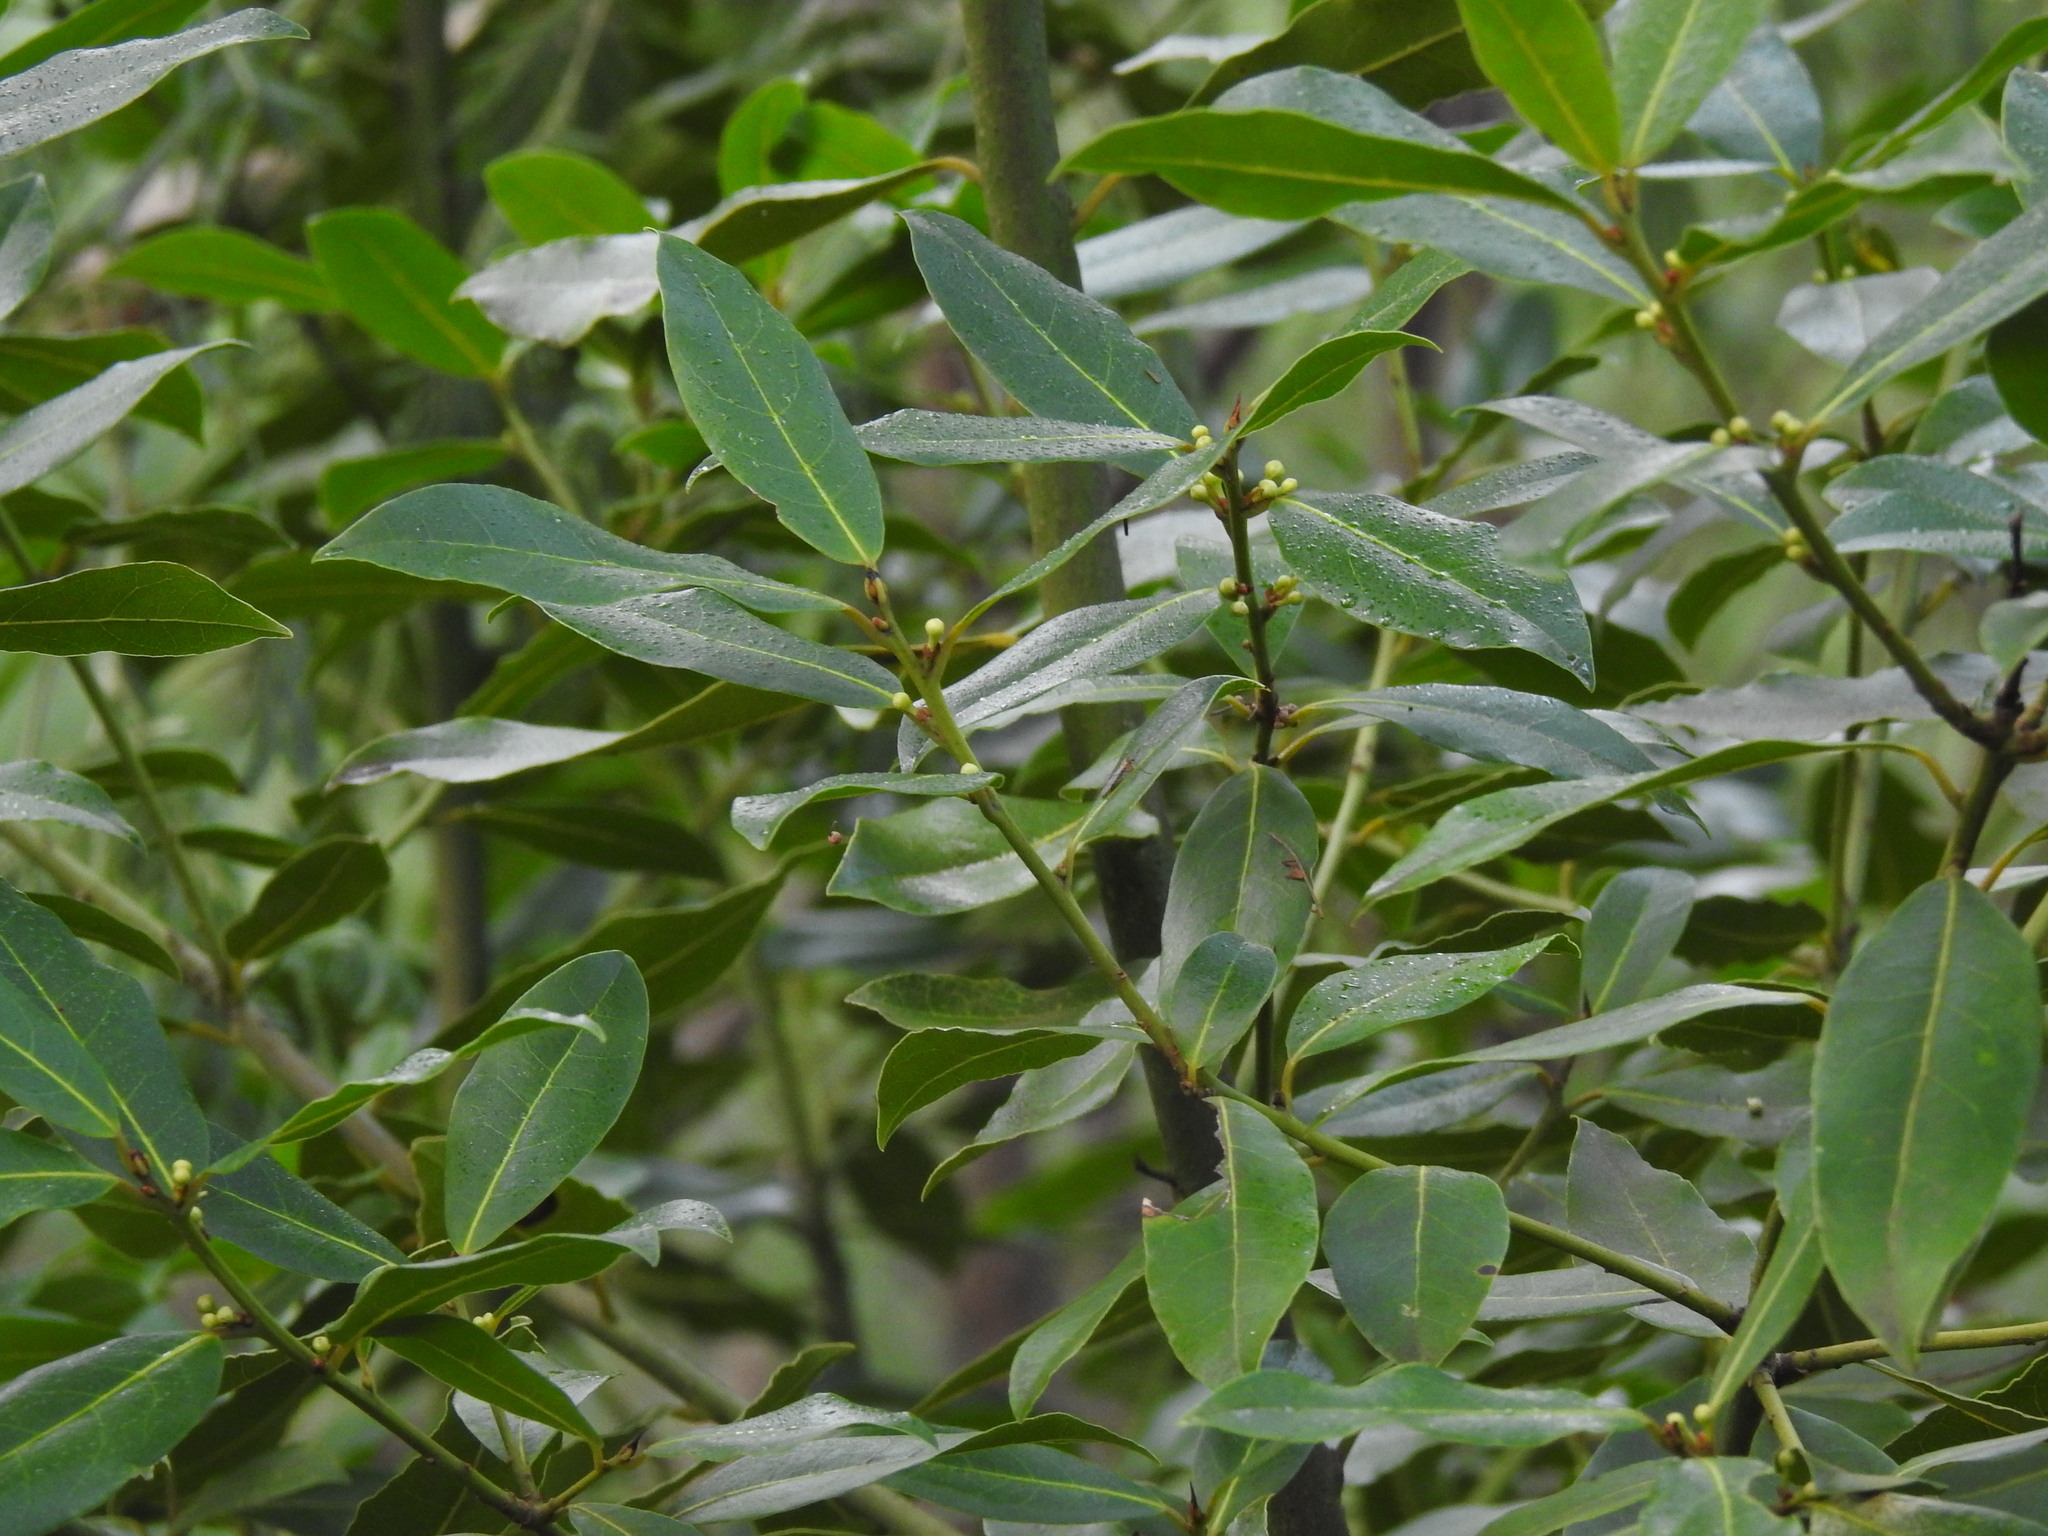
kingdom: Plantae
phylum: Tracheophyta
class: Magnoliopsida
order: Laurales
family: Lauraceae
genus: Laurus
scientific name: Laurus nobilis
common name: Bay
